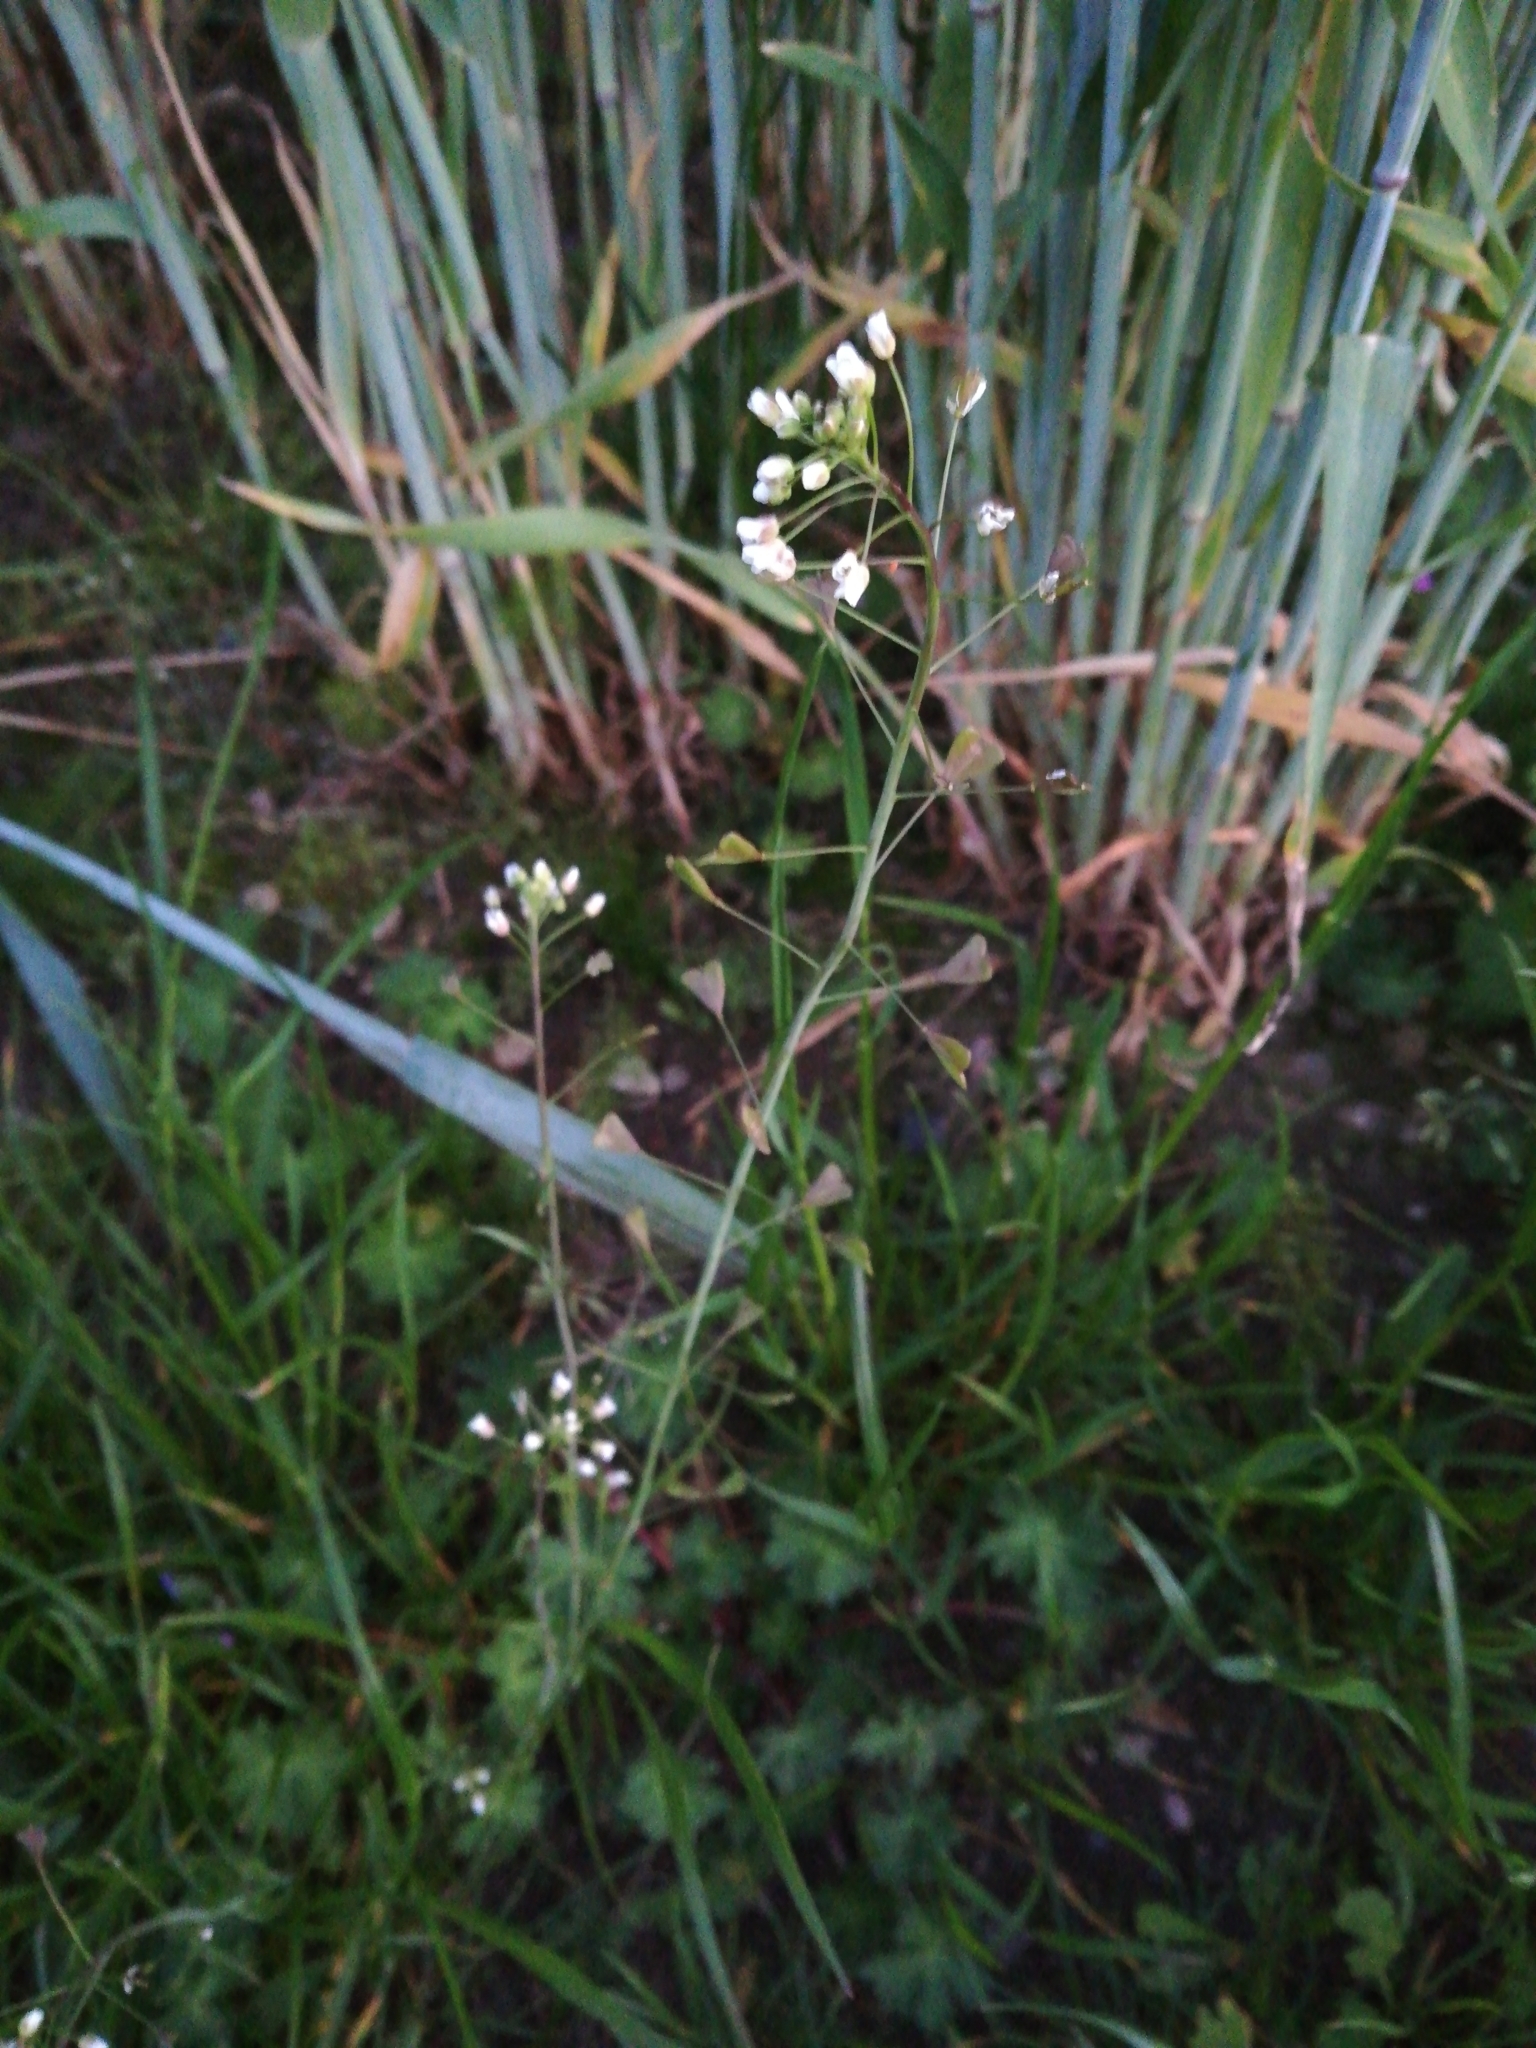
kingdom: Plantae
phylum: Tracheophyta
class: Magnoliopsida
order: Brassicales
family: Brassicaceae
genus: Capsella
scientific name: Capsella bursa-pastoris
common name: Shepherd's purse
